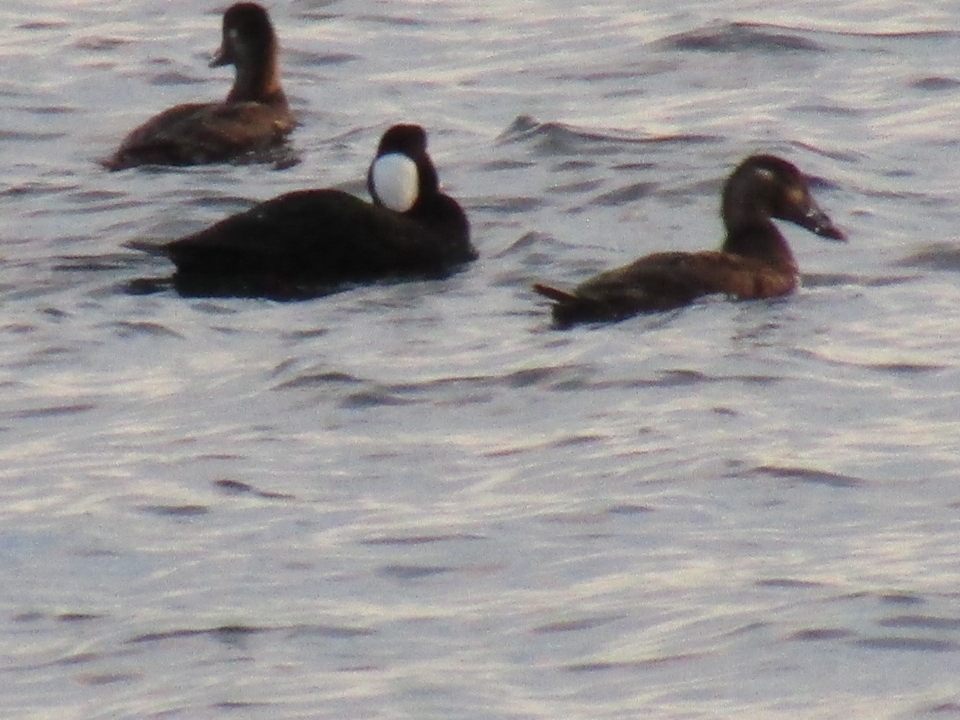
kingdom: Animalia
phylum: Chordata
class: Aves
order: Anseriformes
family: Anatidae
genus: Melanitta
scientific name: Melanitta perspicillata
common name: Surf scoter
